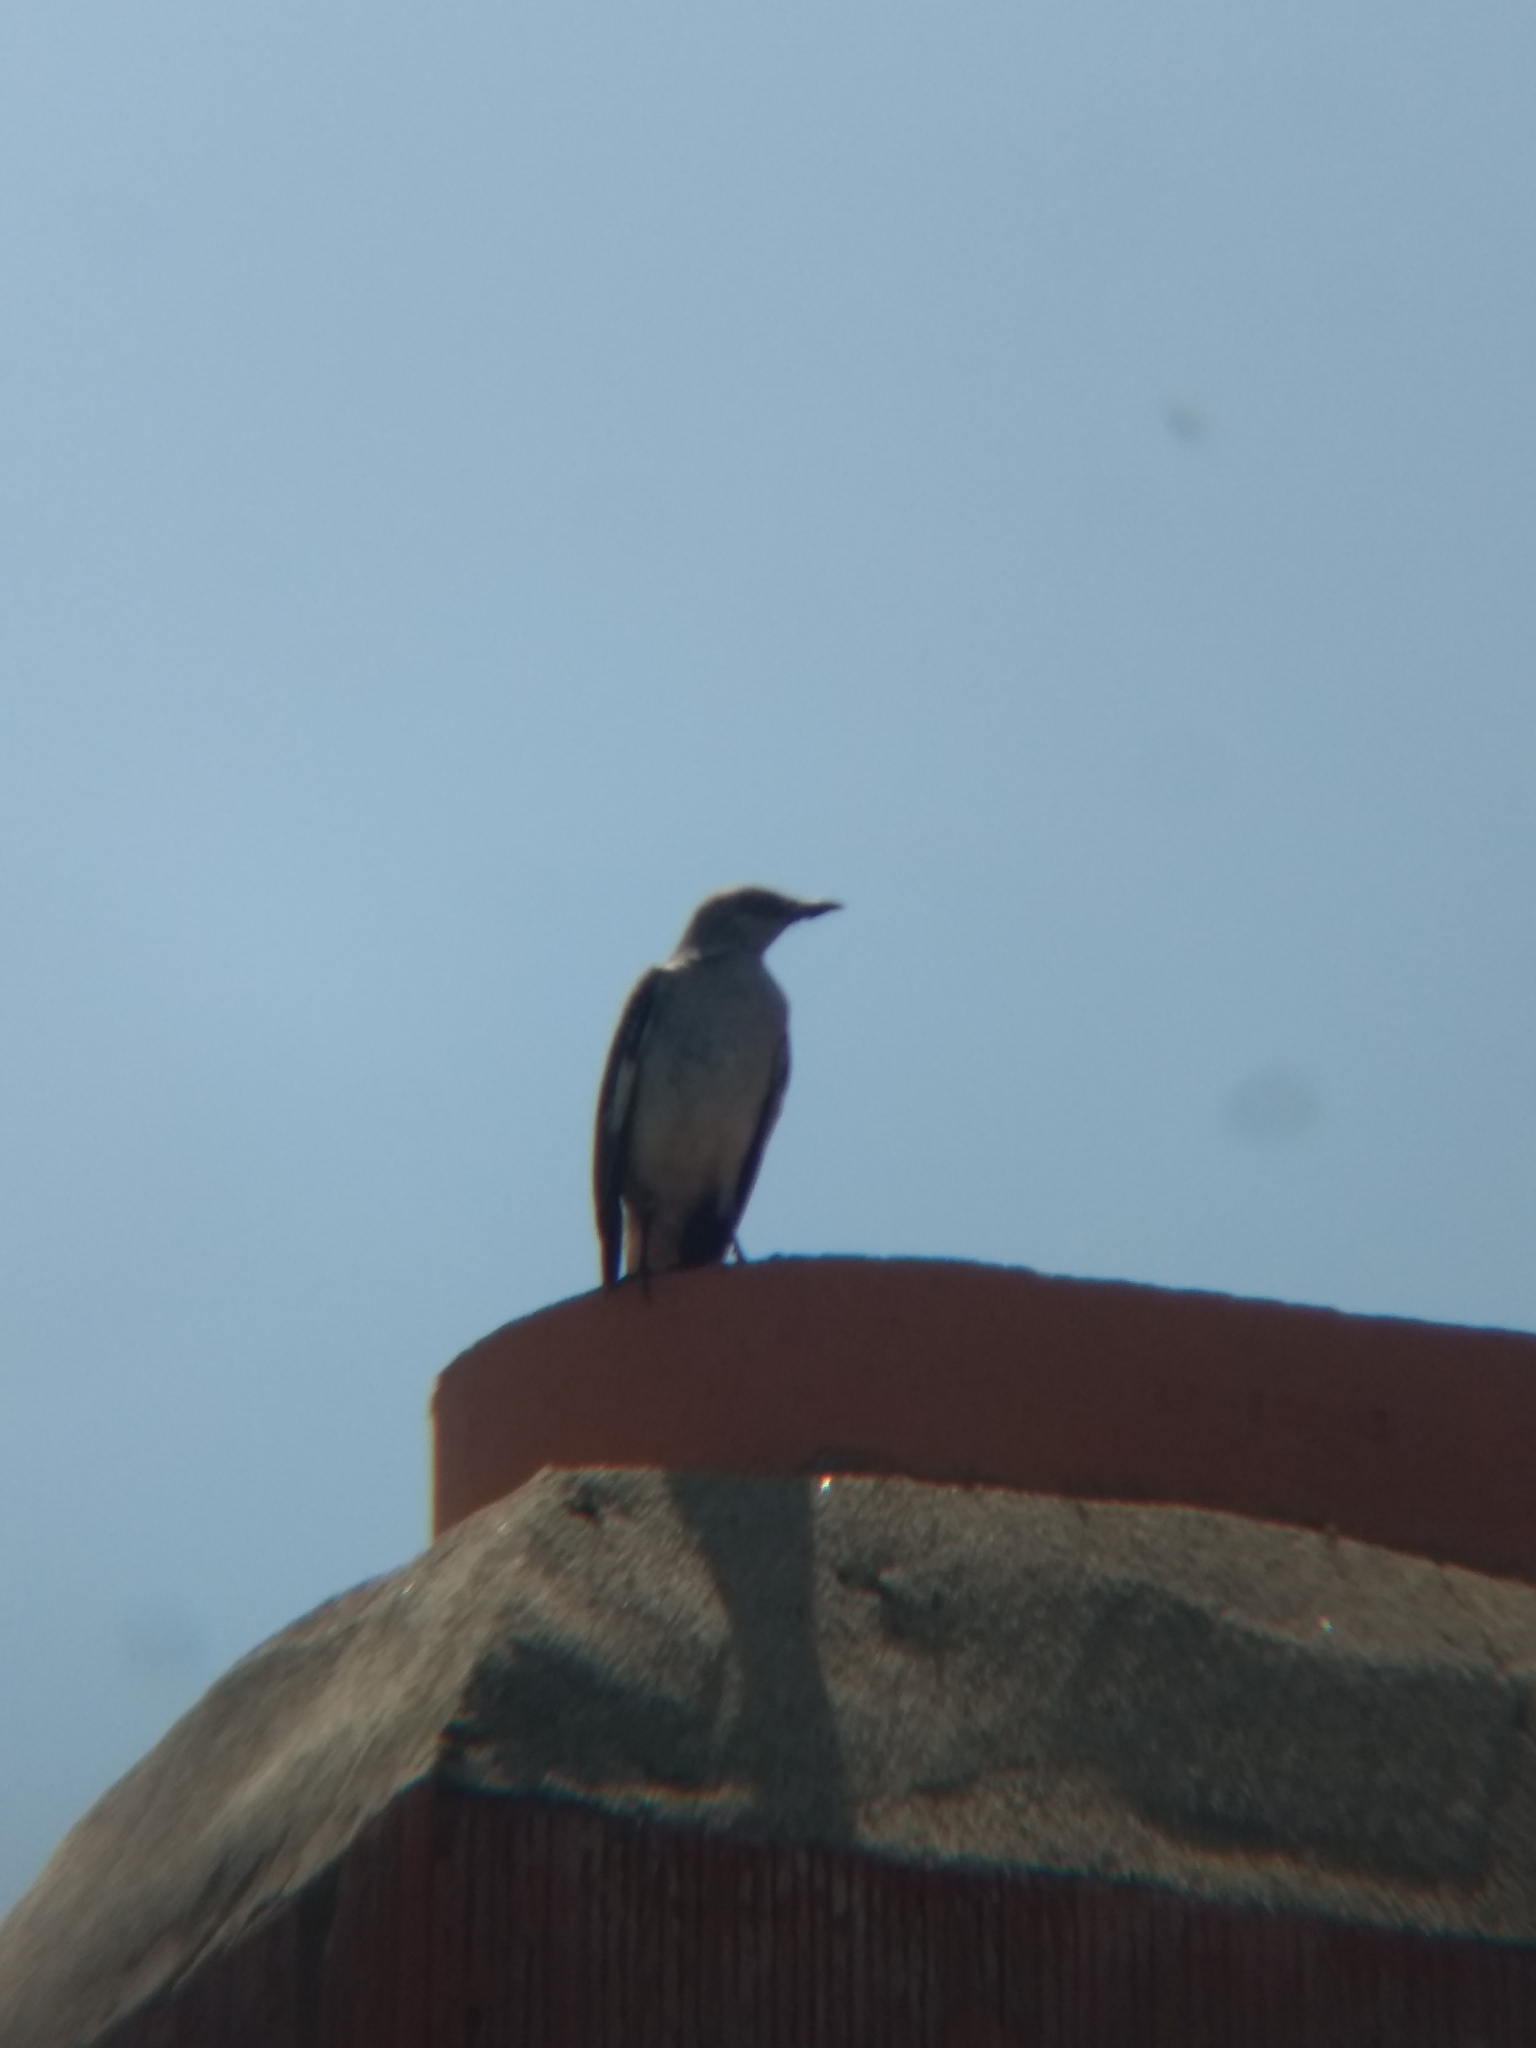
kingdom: Animalia
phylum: Chordata
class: Aves
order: Passeriformes
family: Mimidae
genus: Mimus
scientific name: Mimus polyglottos
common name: Northern mockingbird
